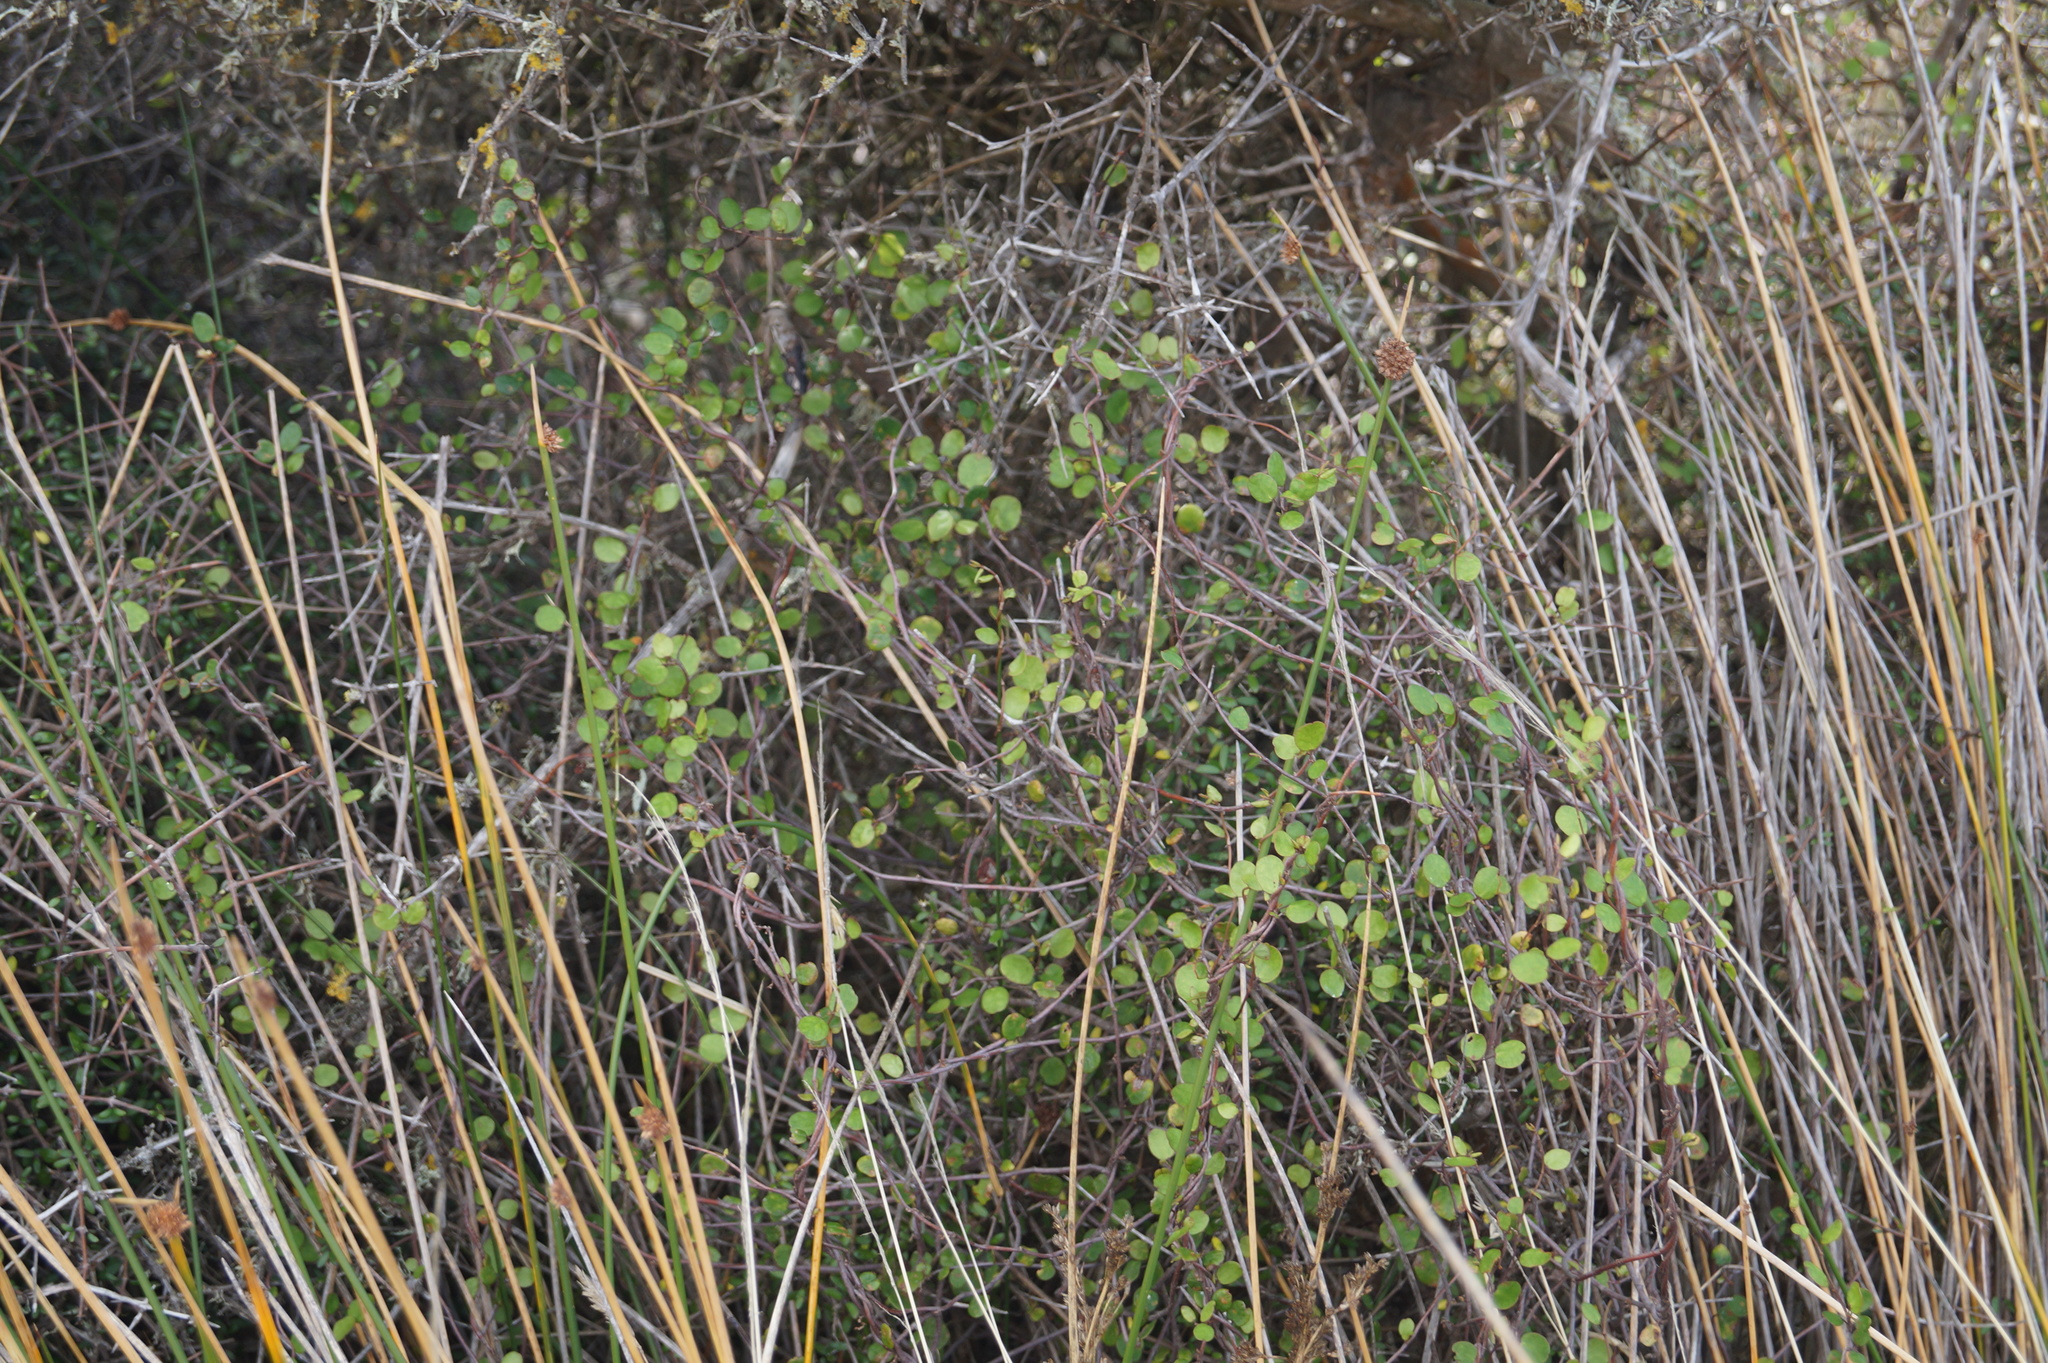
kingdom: Plantae
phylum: Tracheophyta
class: Magnoliopsida
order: Caryophyllales
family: Polygonaceae
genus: Muehlenbeckia
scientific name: Muehlenbeckia complexa
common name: Wireplant
